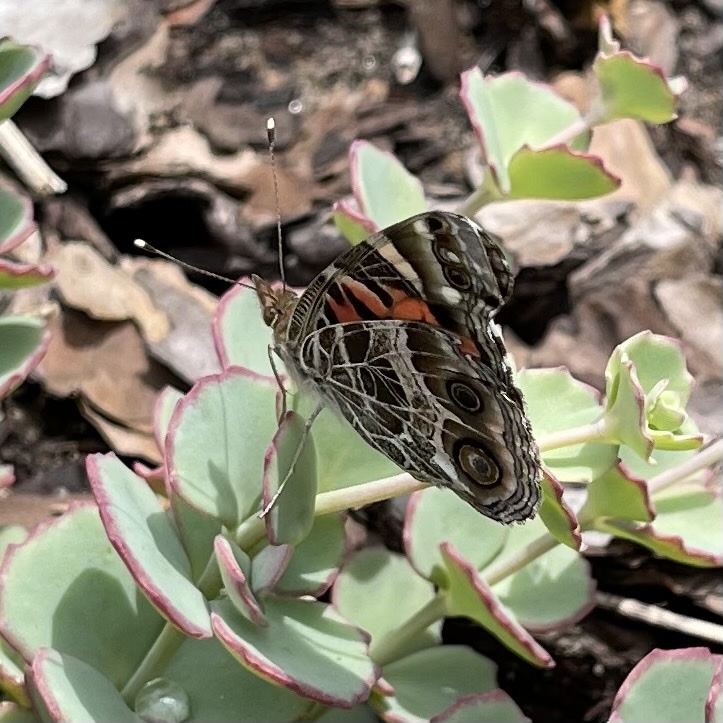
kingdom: Animalia
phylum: Arthropoda
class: Insecta
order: Lepidoptera
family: Nymphalidae
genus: Vanessa
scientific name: Vanessa virginiensis
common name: American lady
